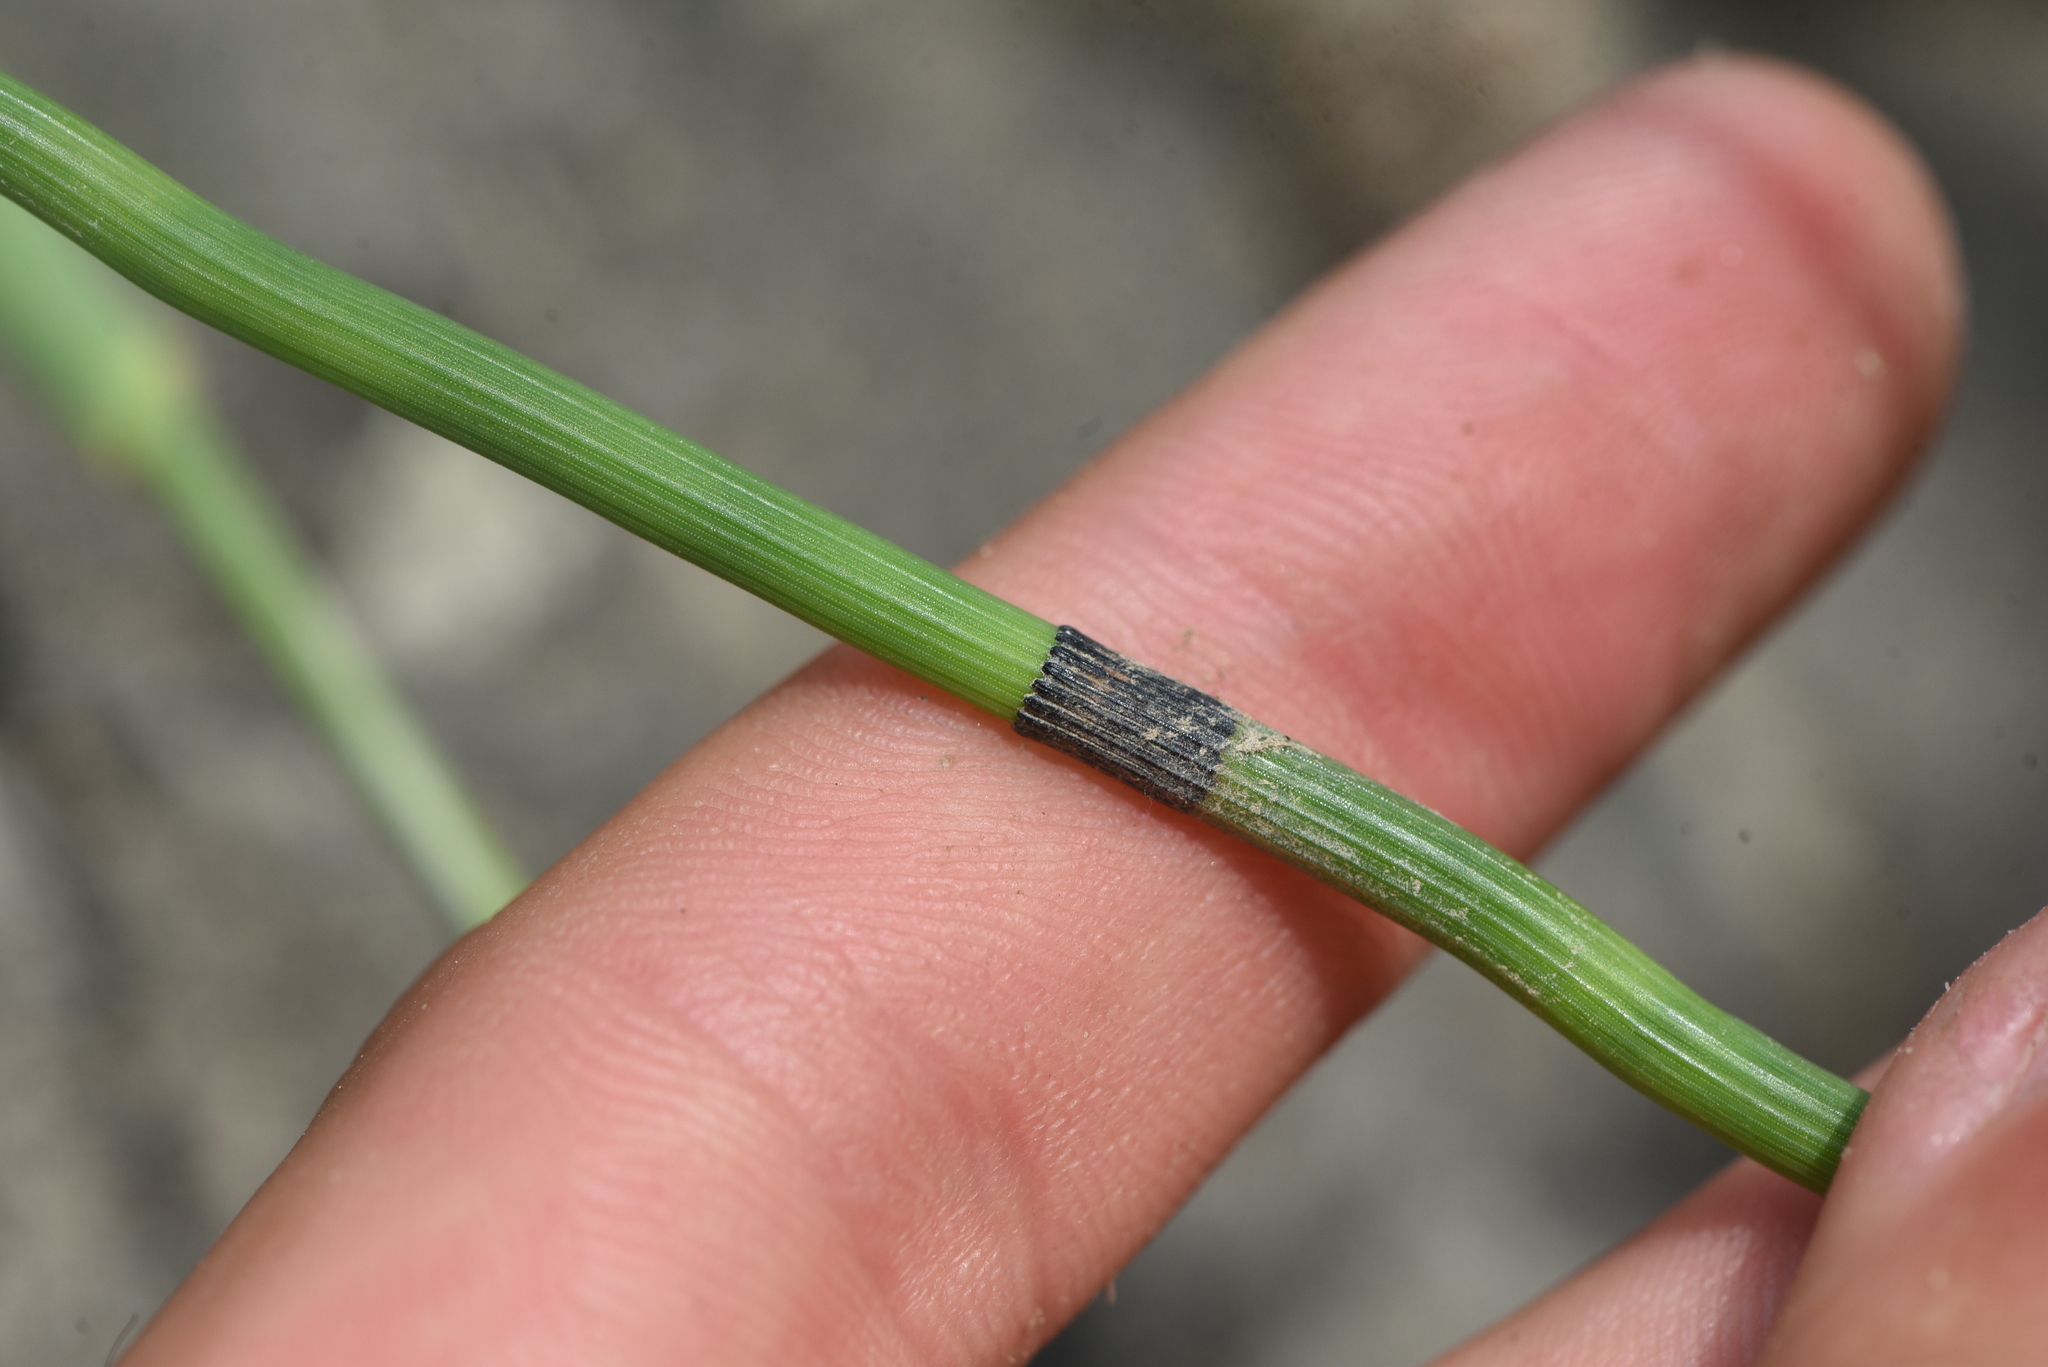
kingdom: Plantae
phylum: Tracheophyta
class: Polypodiopsida
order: Equisetales
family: Equisetaceae
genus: Equisetum
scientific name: Equisetum praealtum
